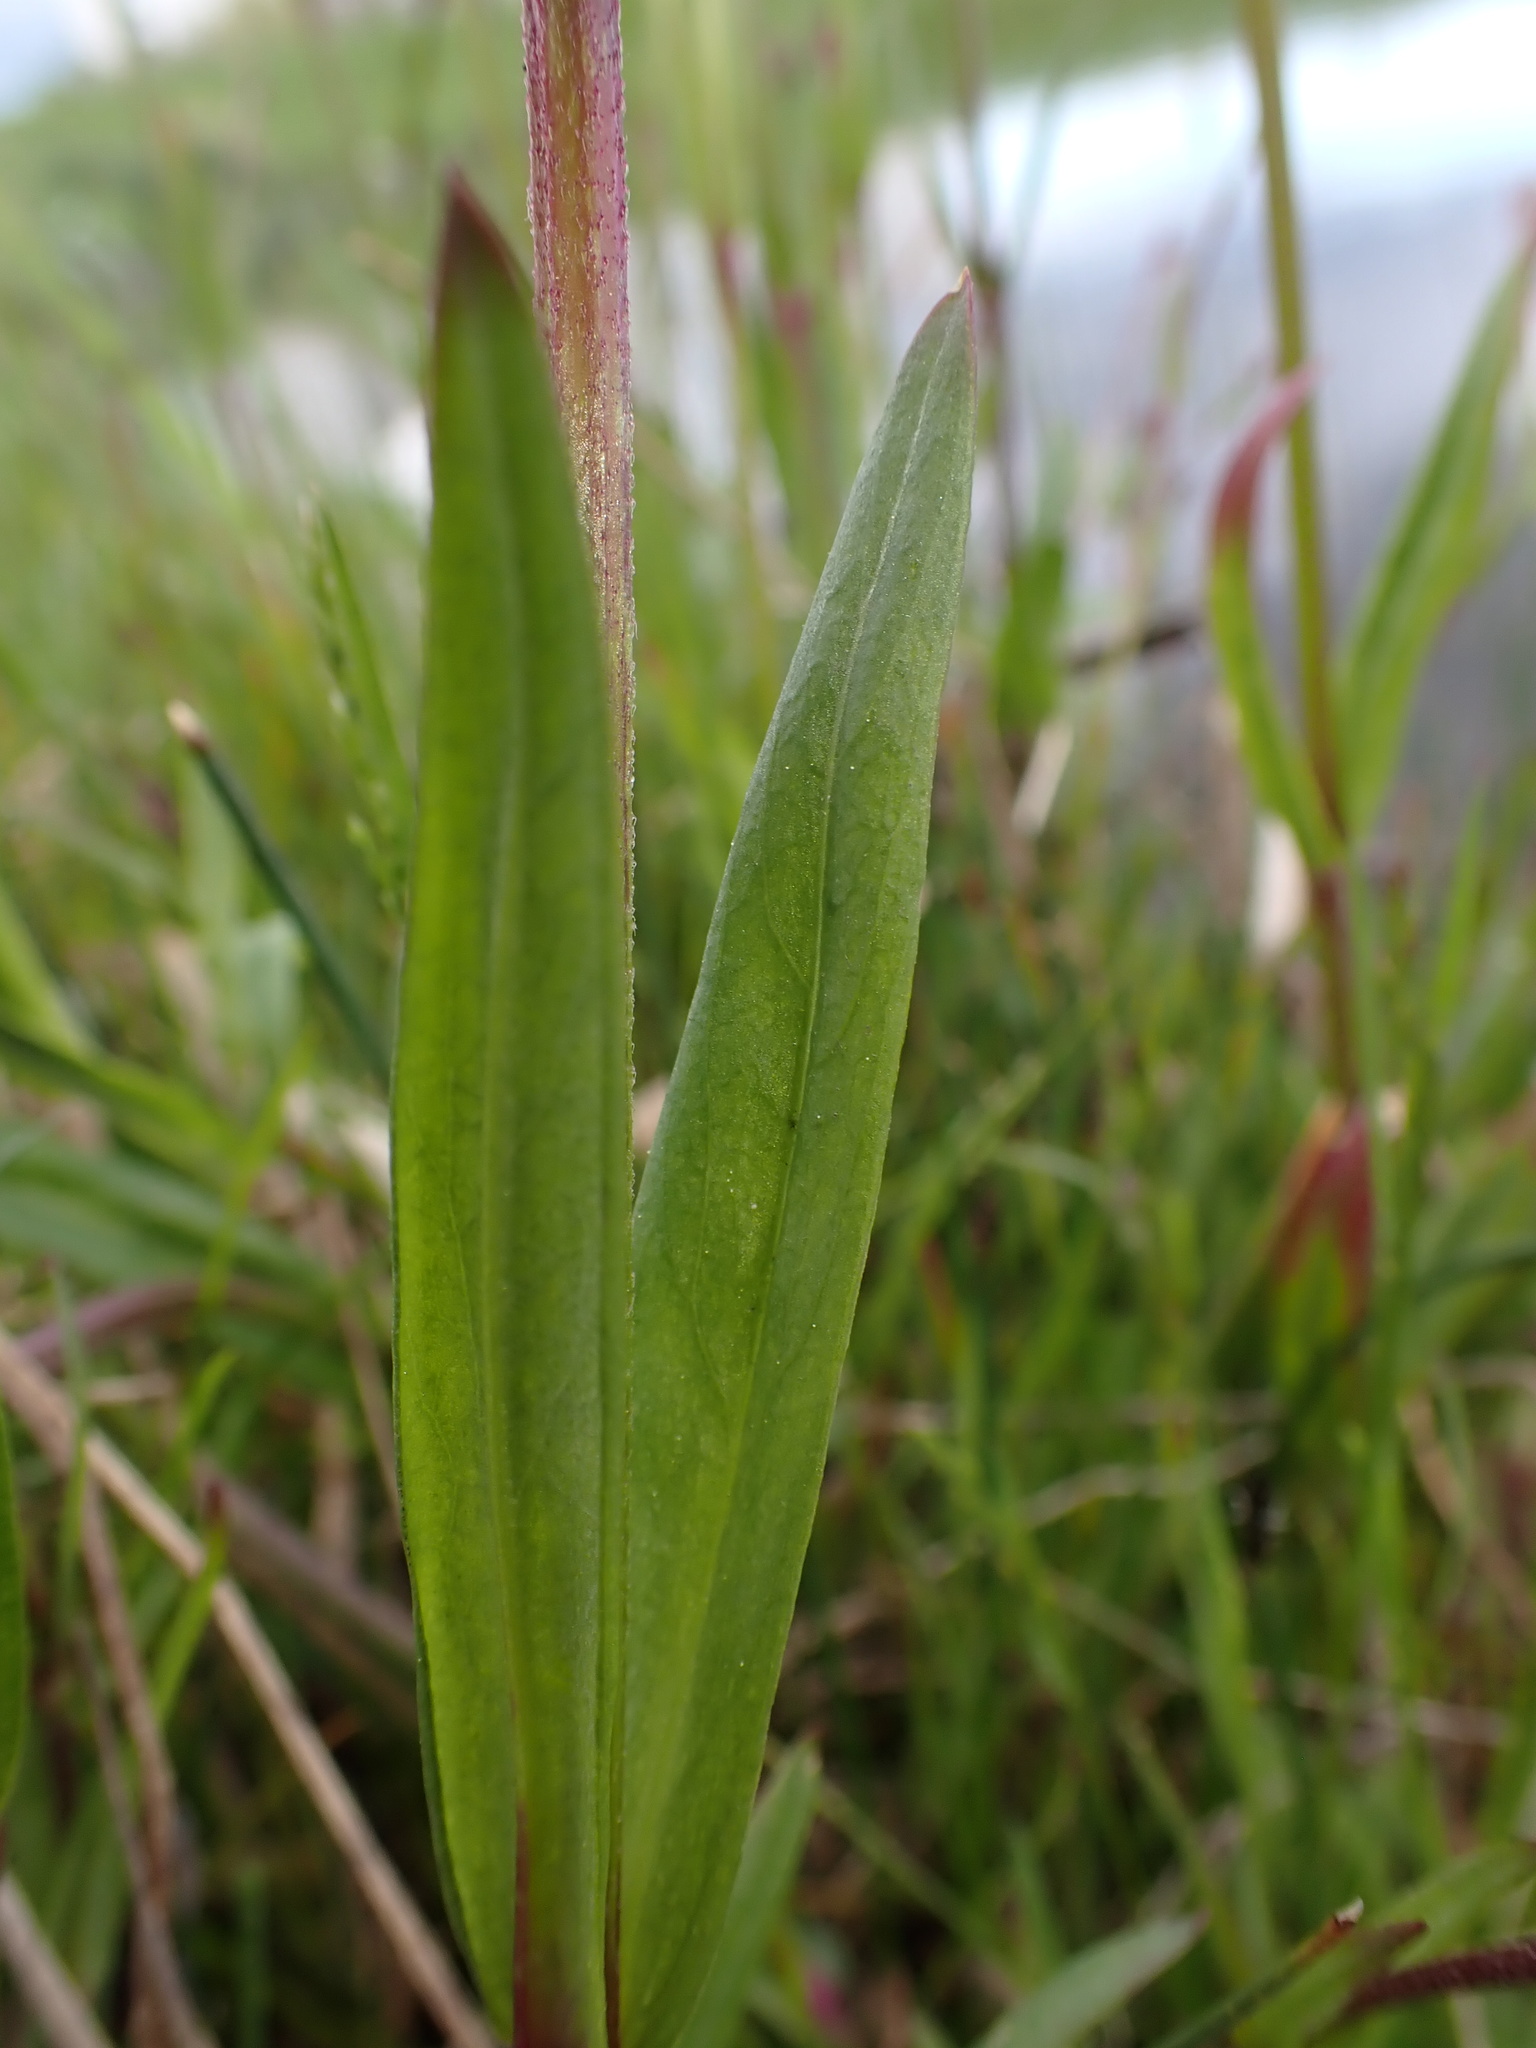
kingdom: Plantae
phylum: Tracheophyta
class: Magnoliopsida
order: Caryophyllales
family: Caryophyllaceae
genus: Silene
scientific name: Silene flos-cuculi
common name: Ragged-robin
